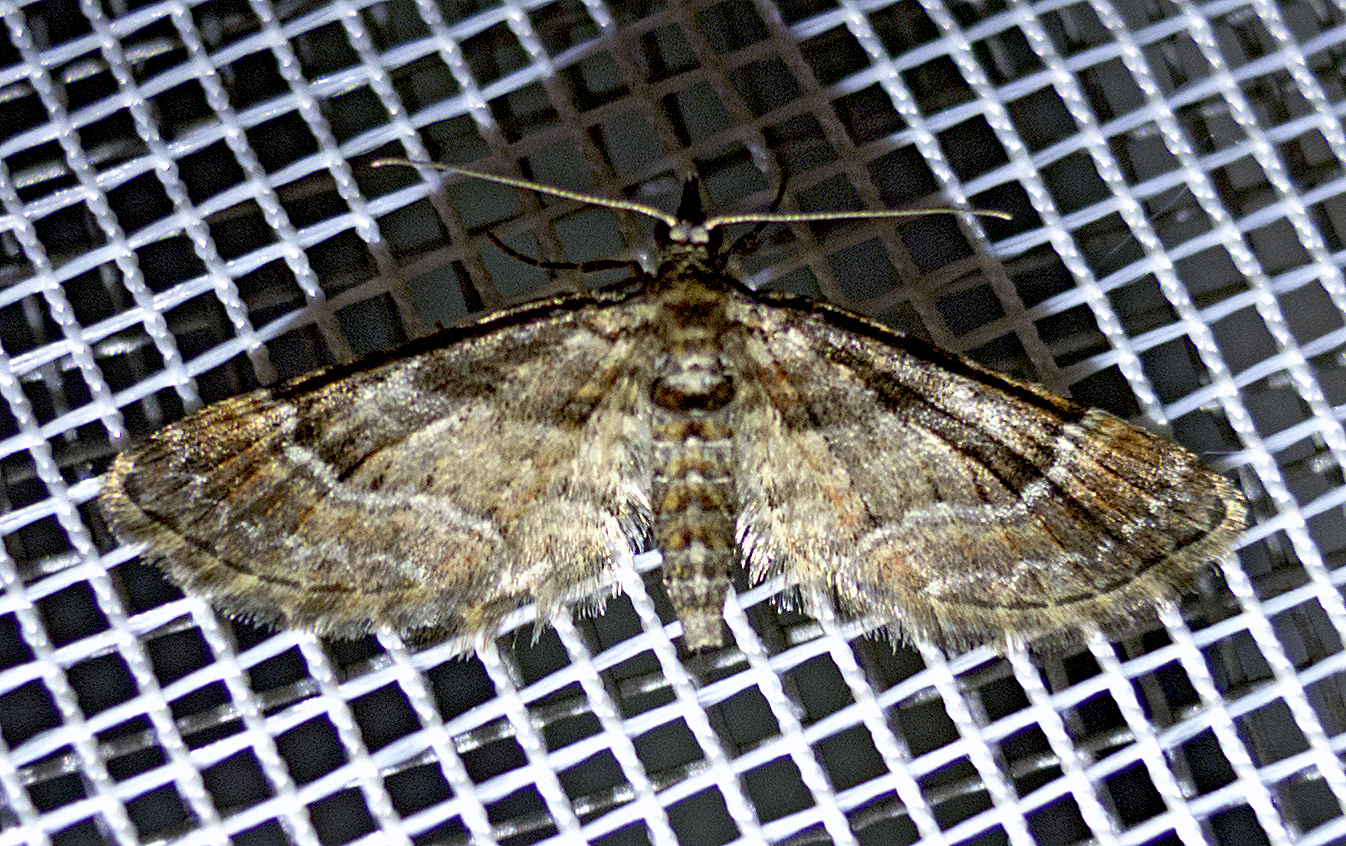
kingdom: Animalia
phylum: Arthropoda
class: Insecta
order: Lepidoptera
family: Geometridae
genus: Gymnoscelis
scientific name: Gymnoscelis rufifasciata
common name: Double-striped pug
